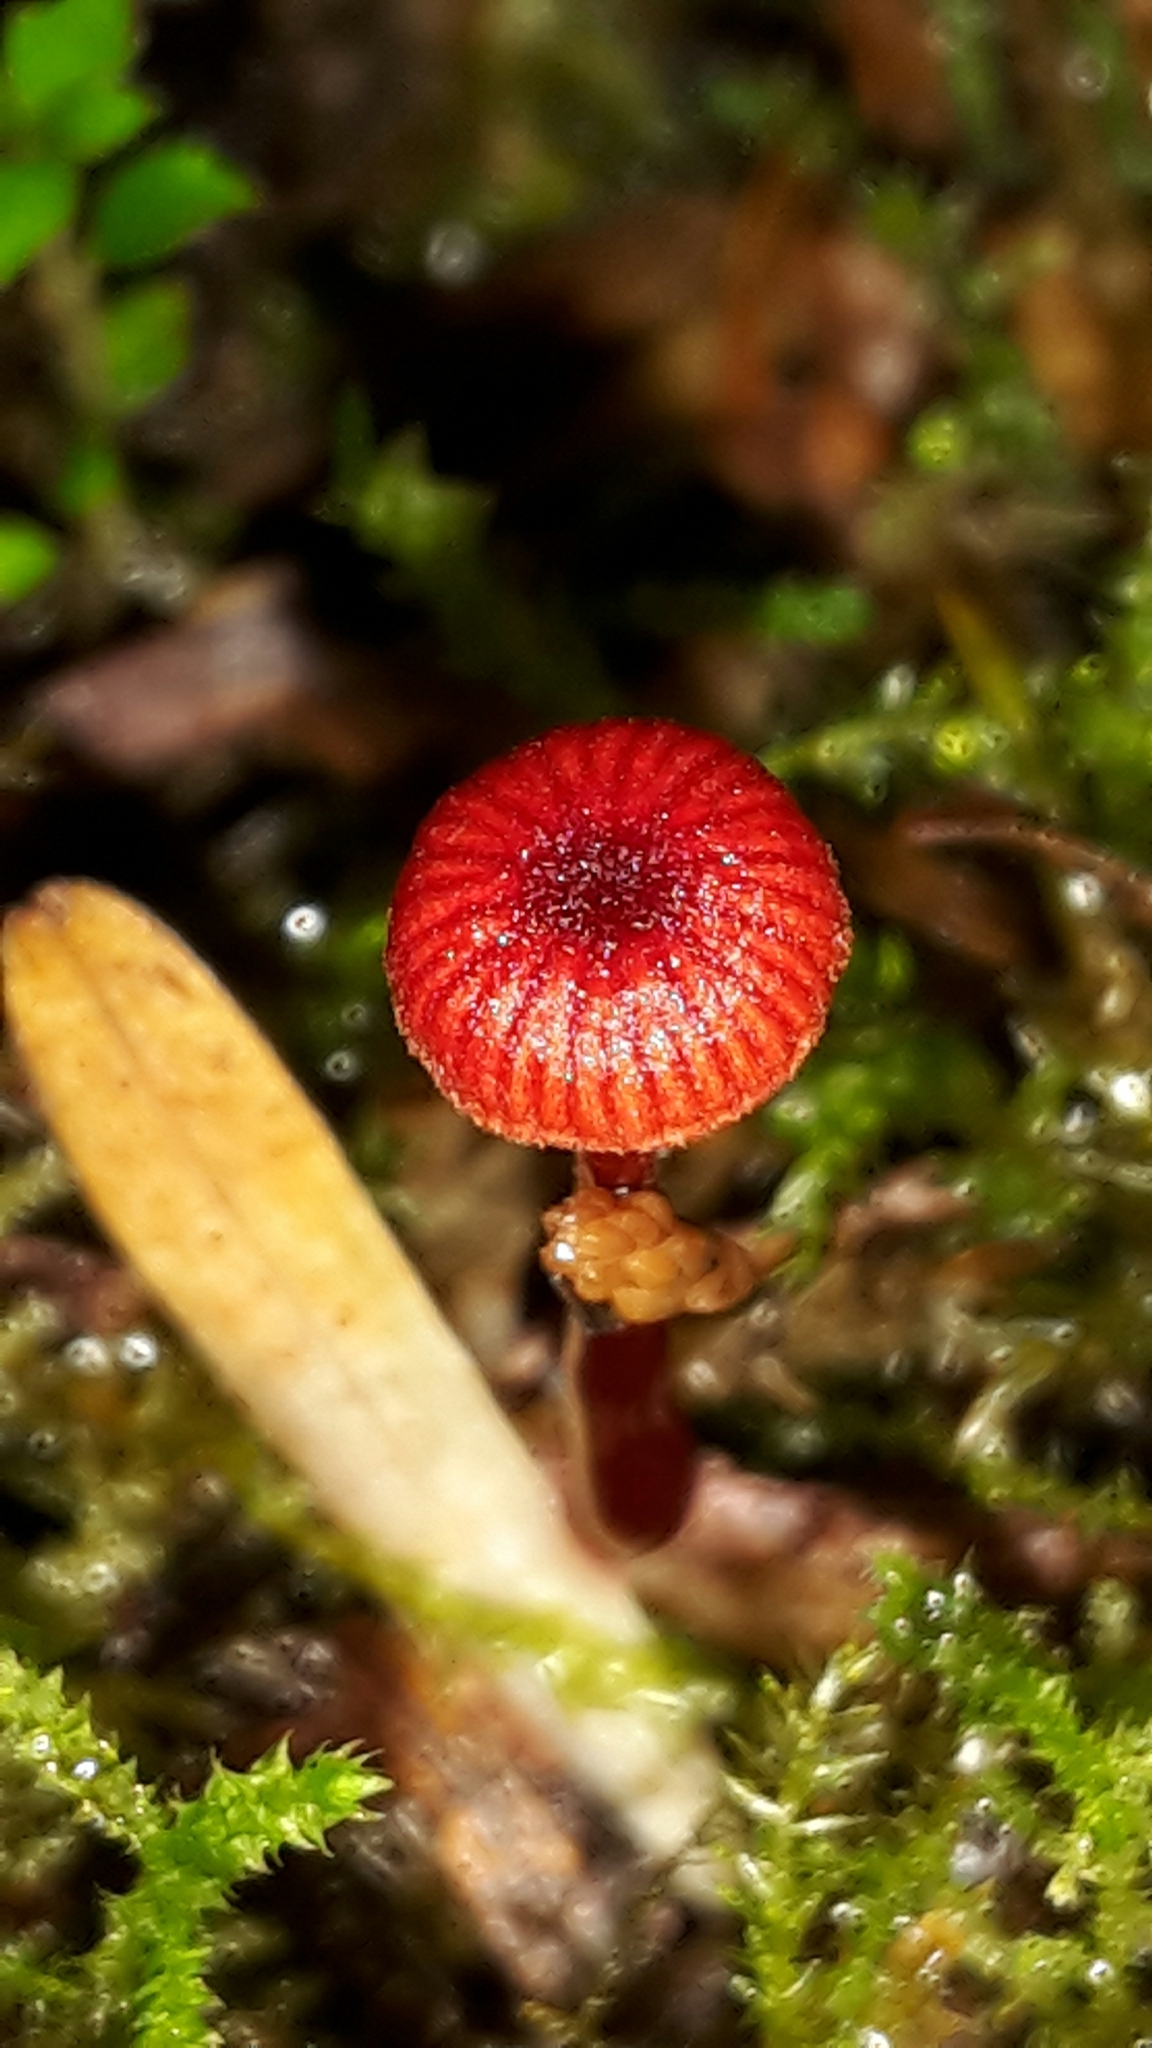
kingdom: Fungi
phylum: Basidiomycota
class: Agaricomycetes
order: Agaricales
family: Mycenaceae
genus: Cruentomycena
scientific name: Cruentomycena viscidocruenta
